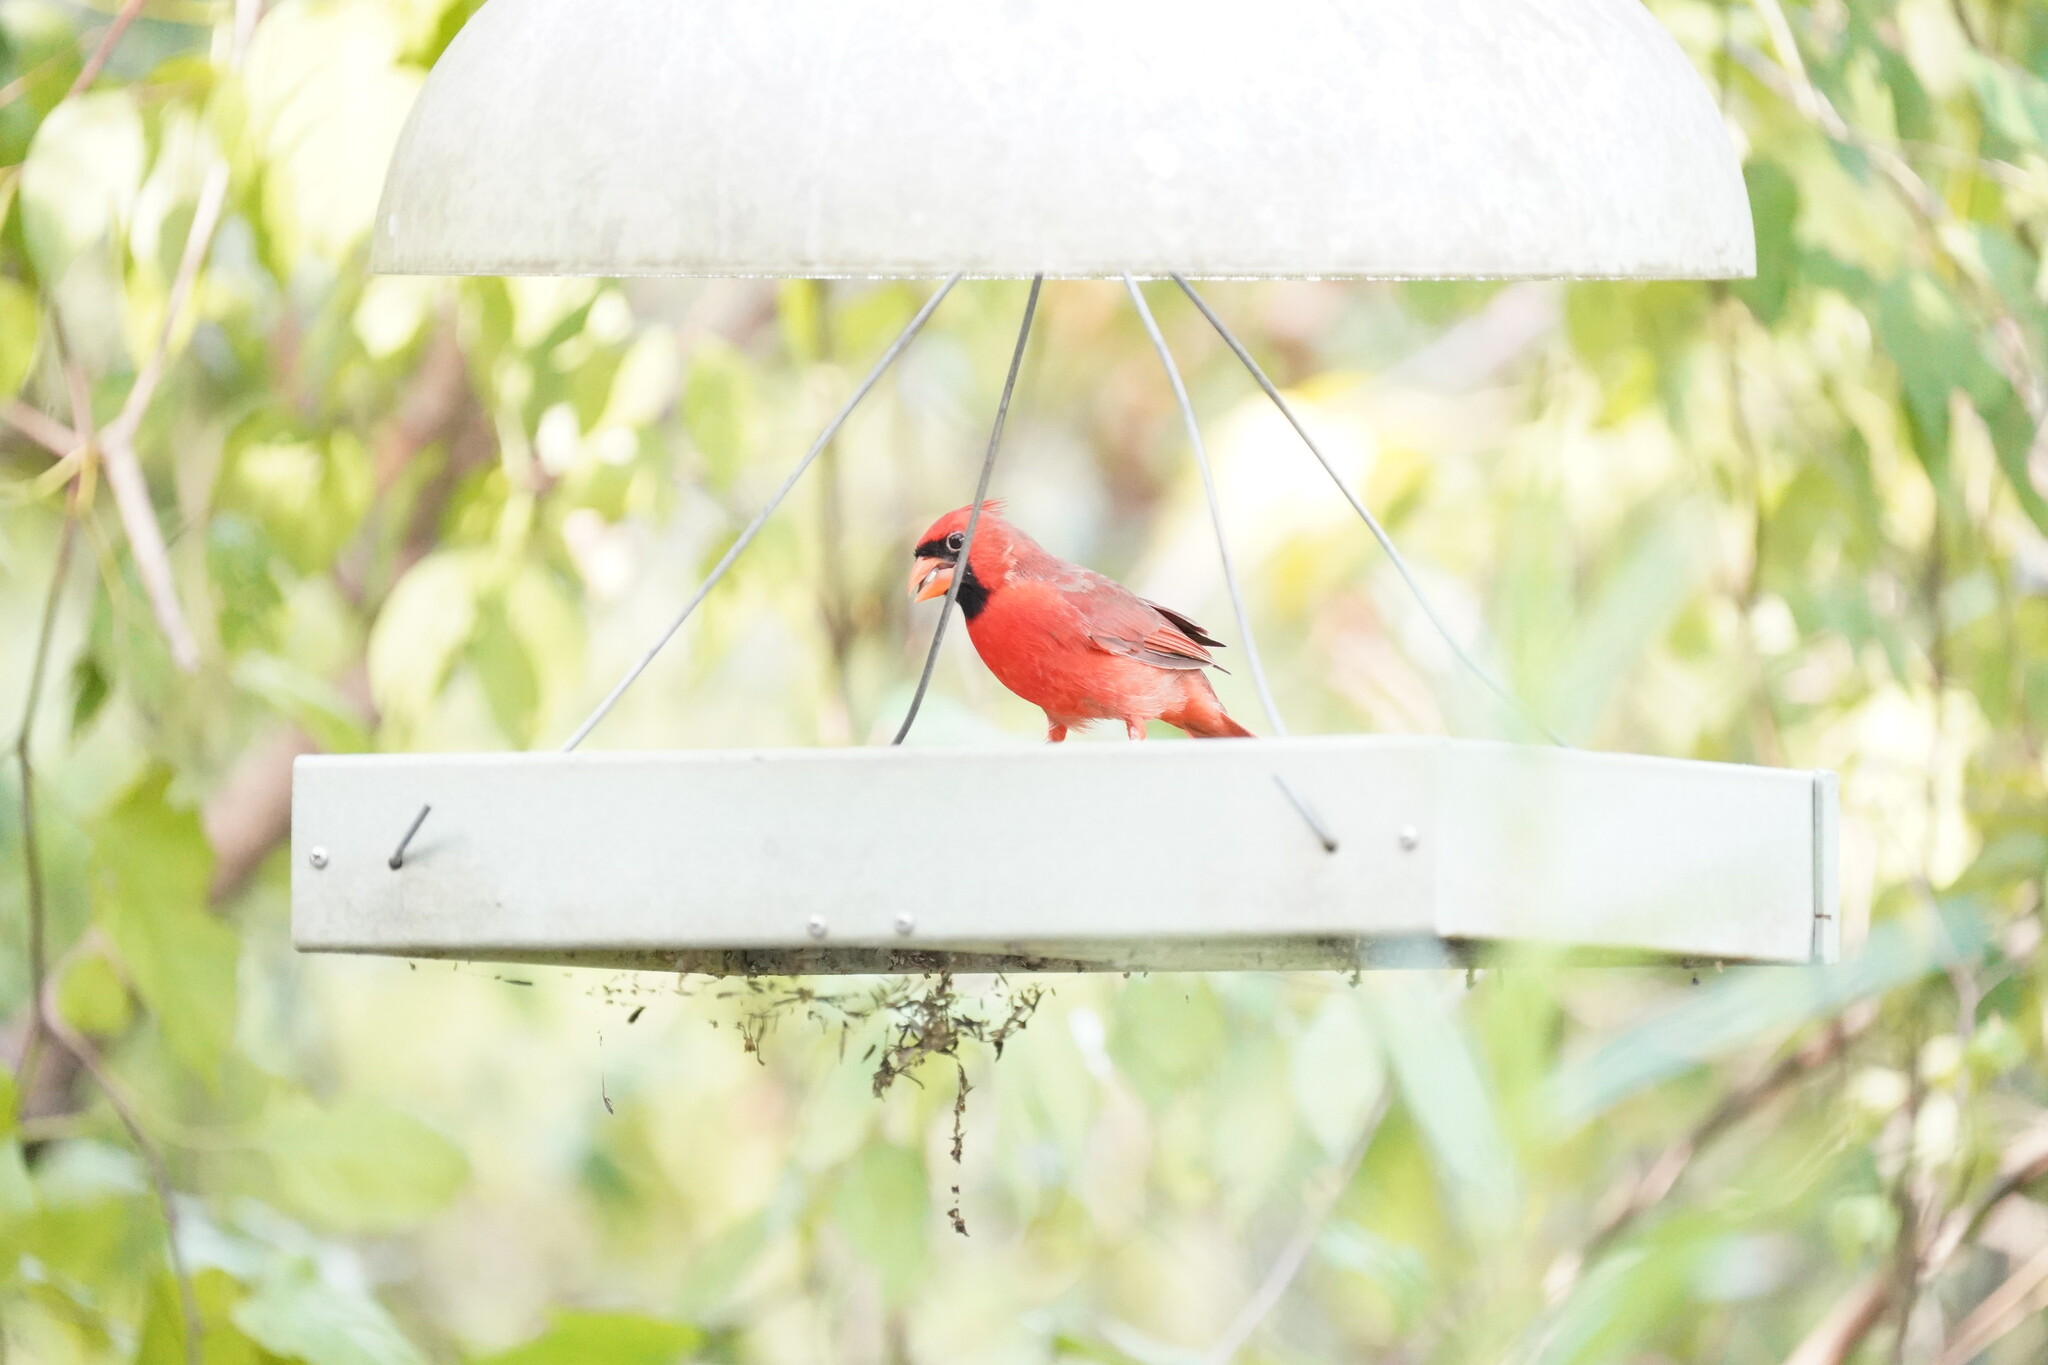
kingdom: Animalia
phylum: Chordata
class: Aves
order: Passeriformes
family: Cardinalidae
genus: Cardinalis
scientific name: Cardinalis cardinalis
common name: Northern cardinal
